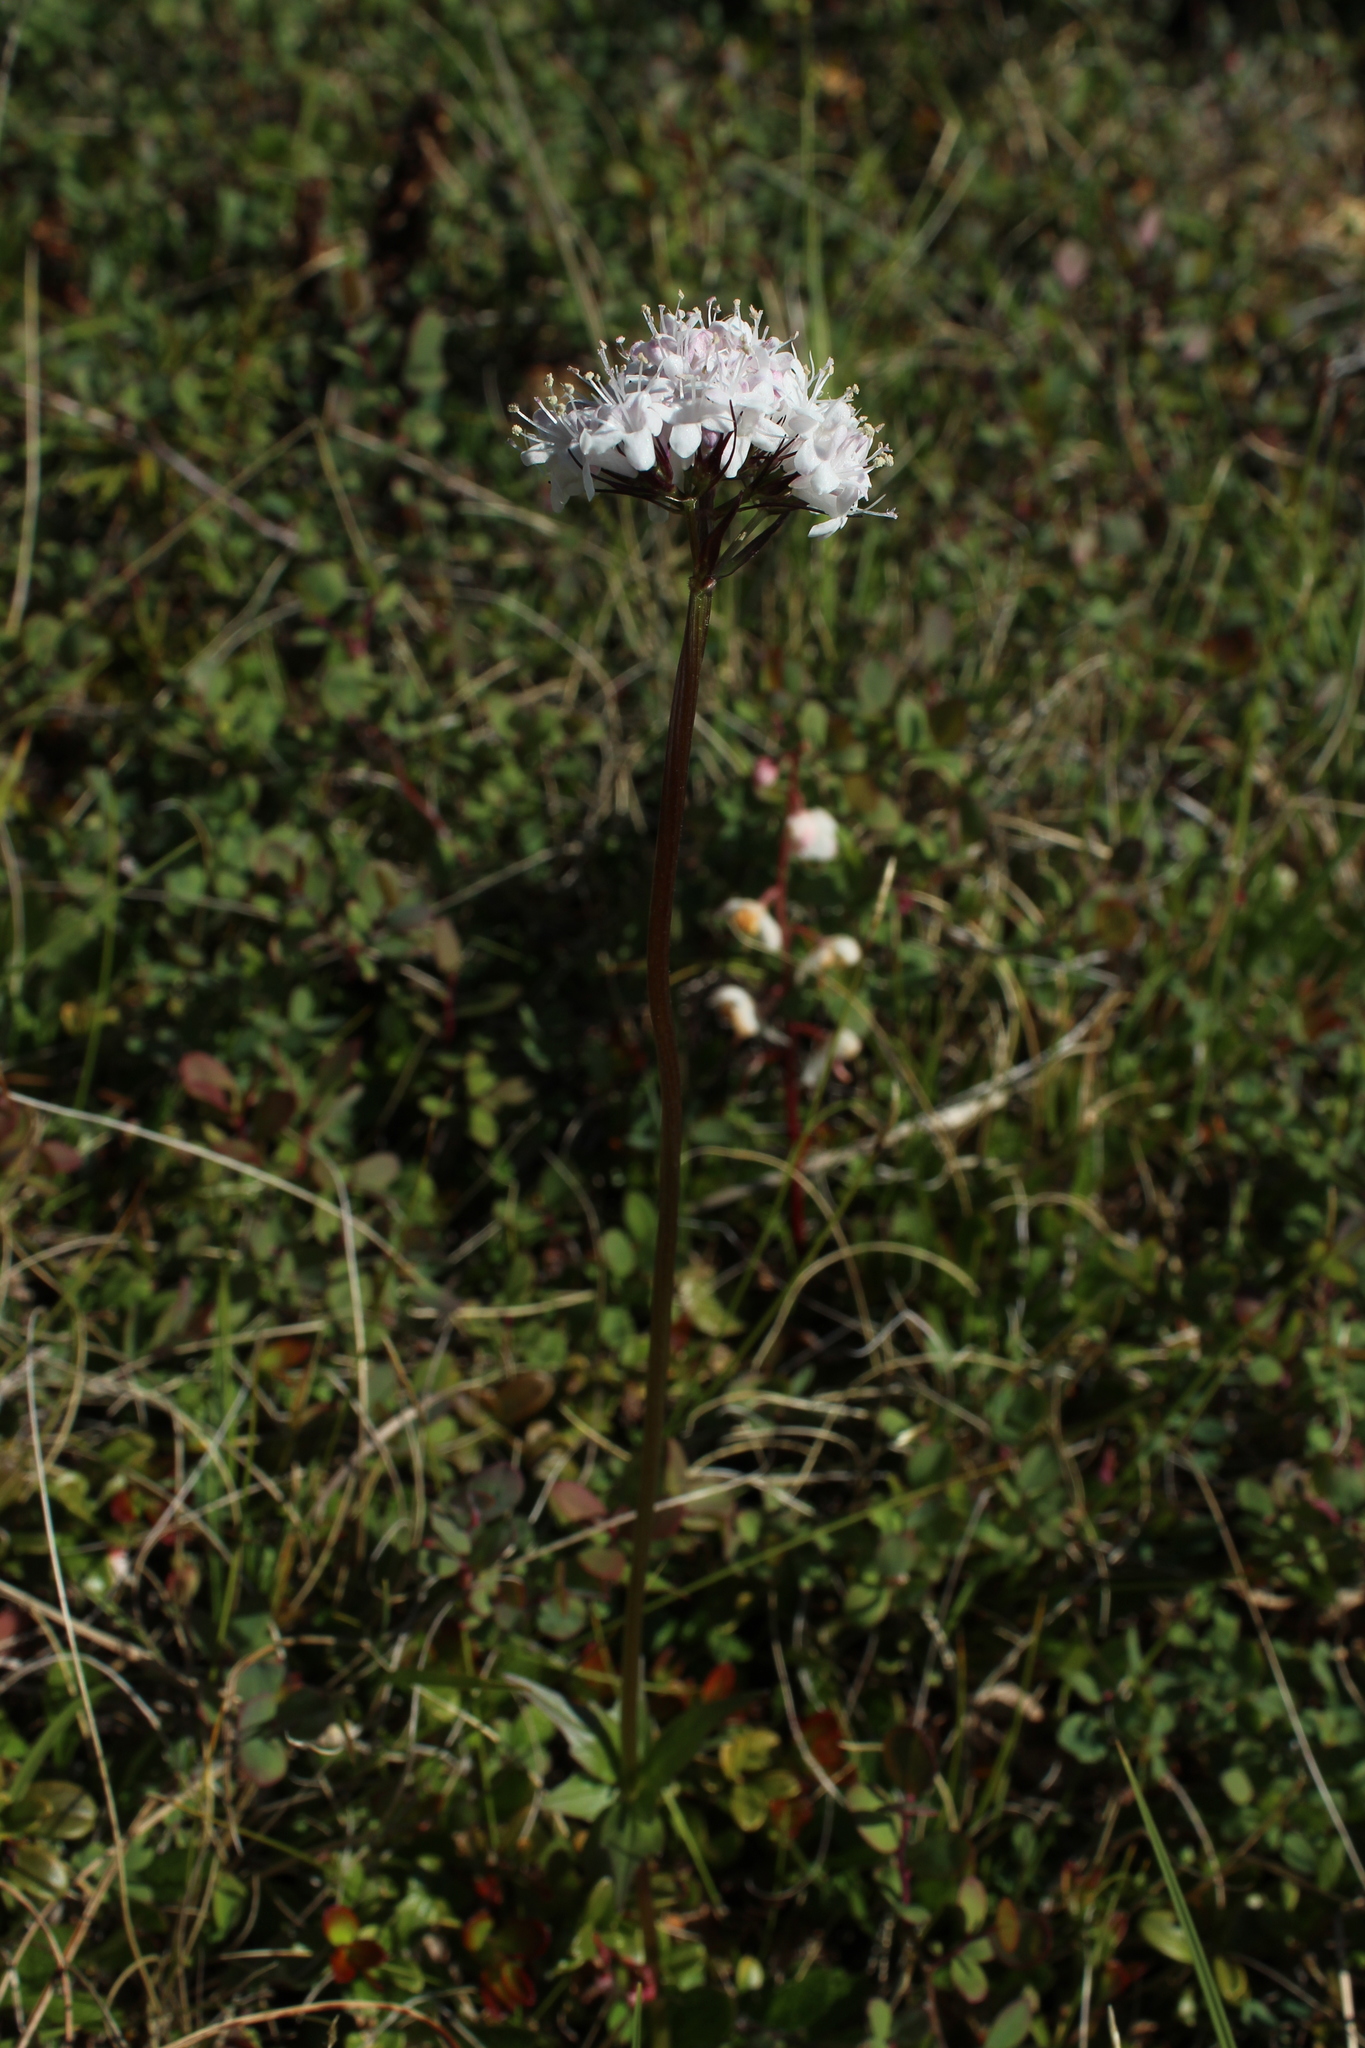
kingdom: Plantae
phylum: Tracheophyta
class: Magnoliopsida
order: Dipsacales
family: Caprifoliaceae
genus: Valeriana
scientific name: Valeriana capitata
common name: Capitate valerian
